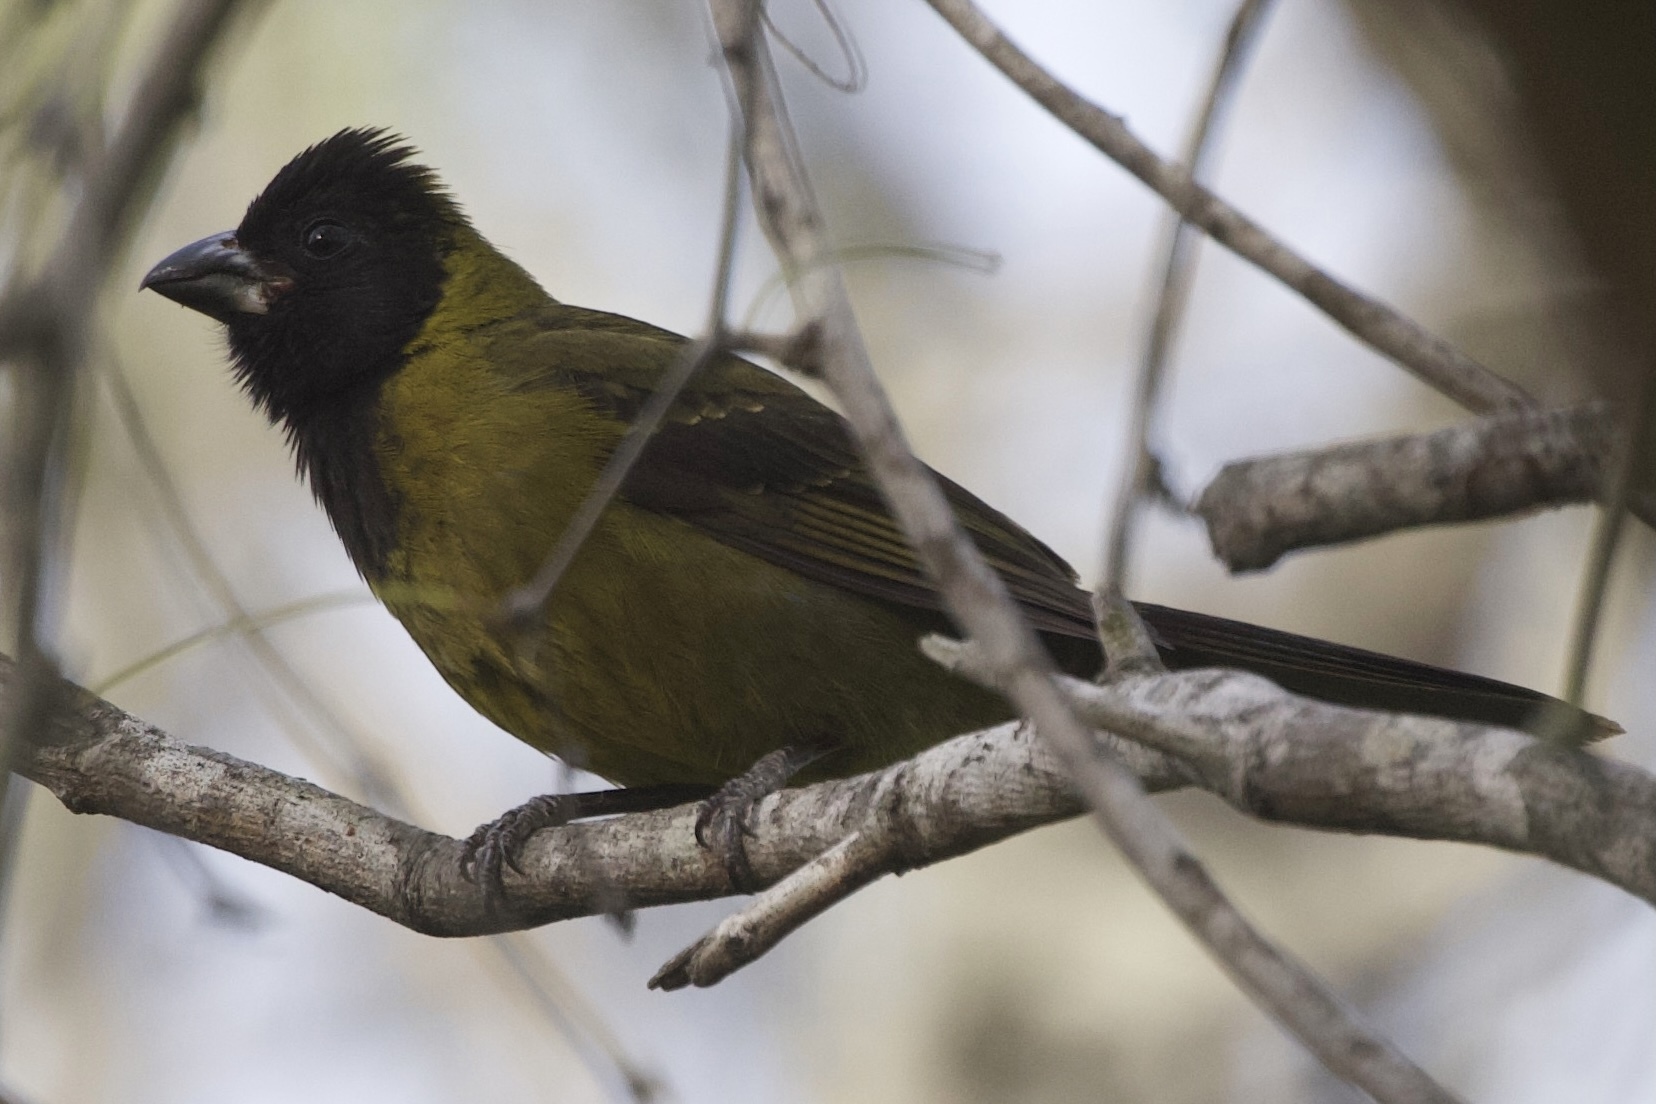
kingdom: Animalia
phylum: Chordata
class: Aves
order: Passeriformes
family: Cardinalidae
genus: Rhodothraupis
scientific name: Rhodothraupis celaeno
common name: Crimson-collared grosbeak
